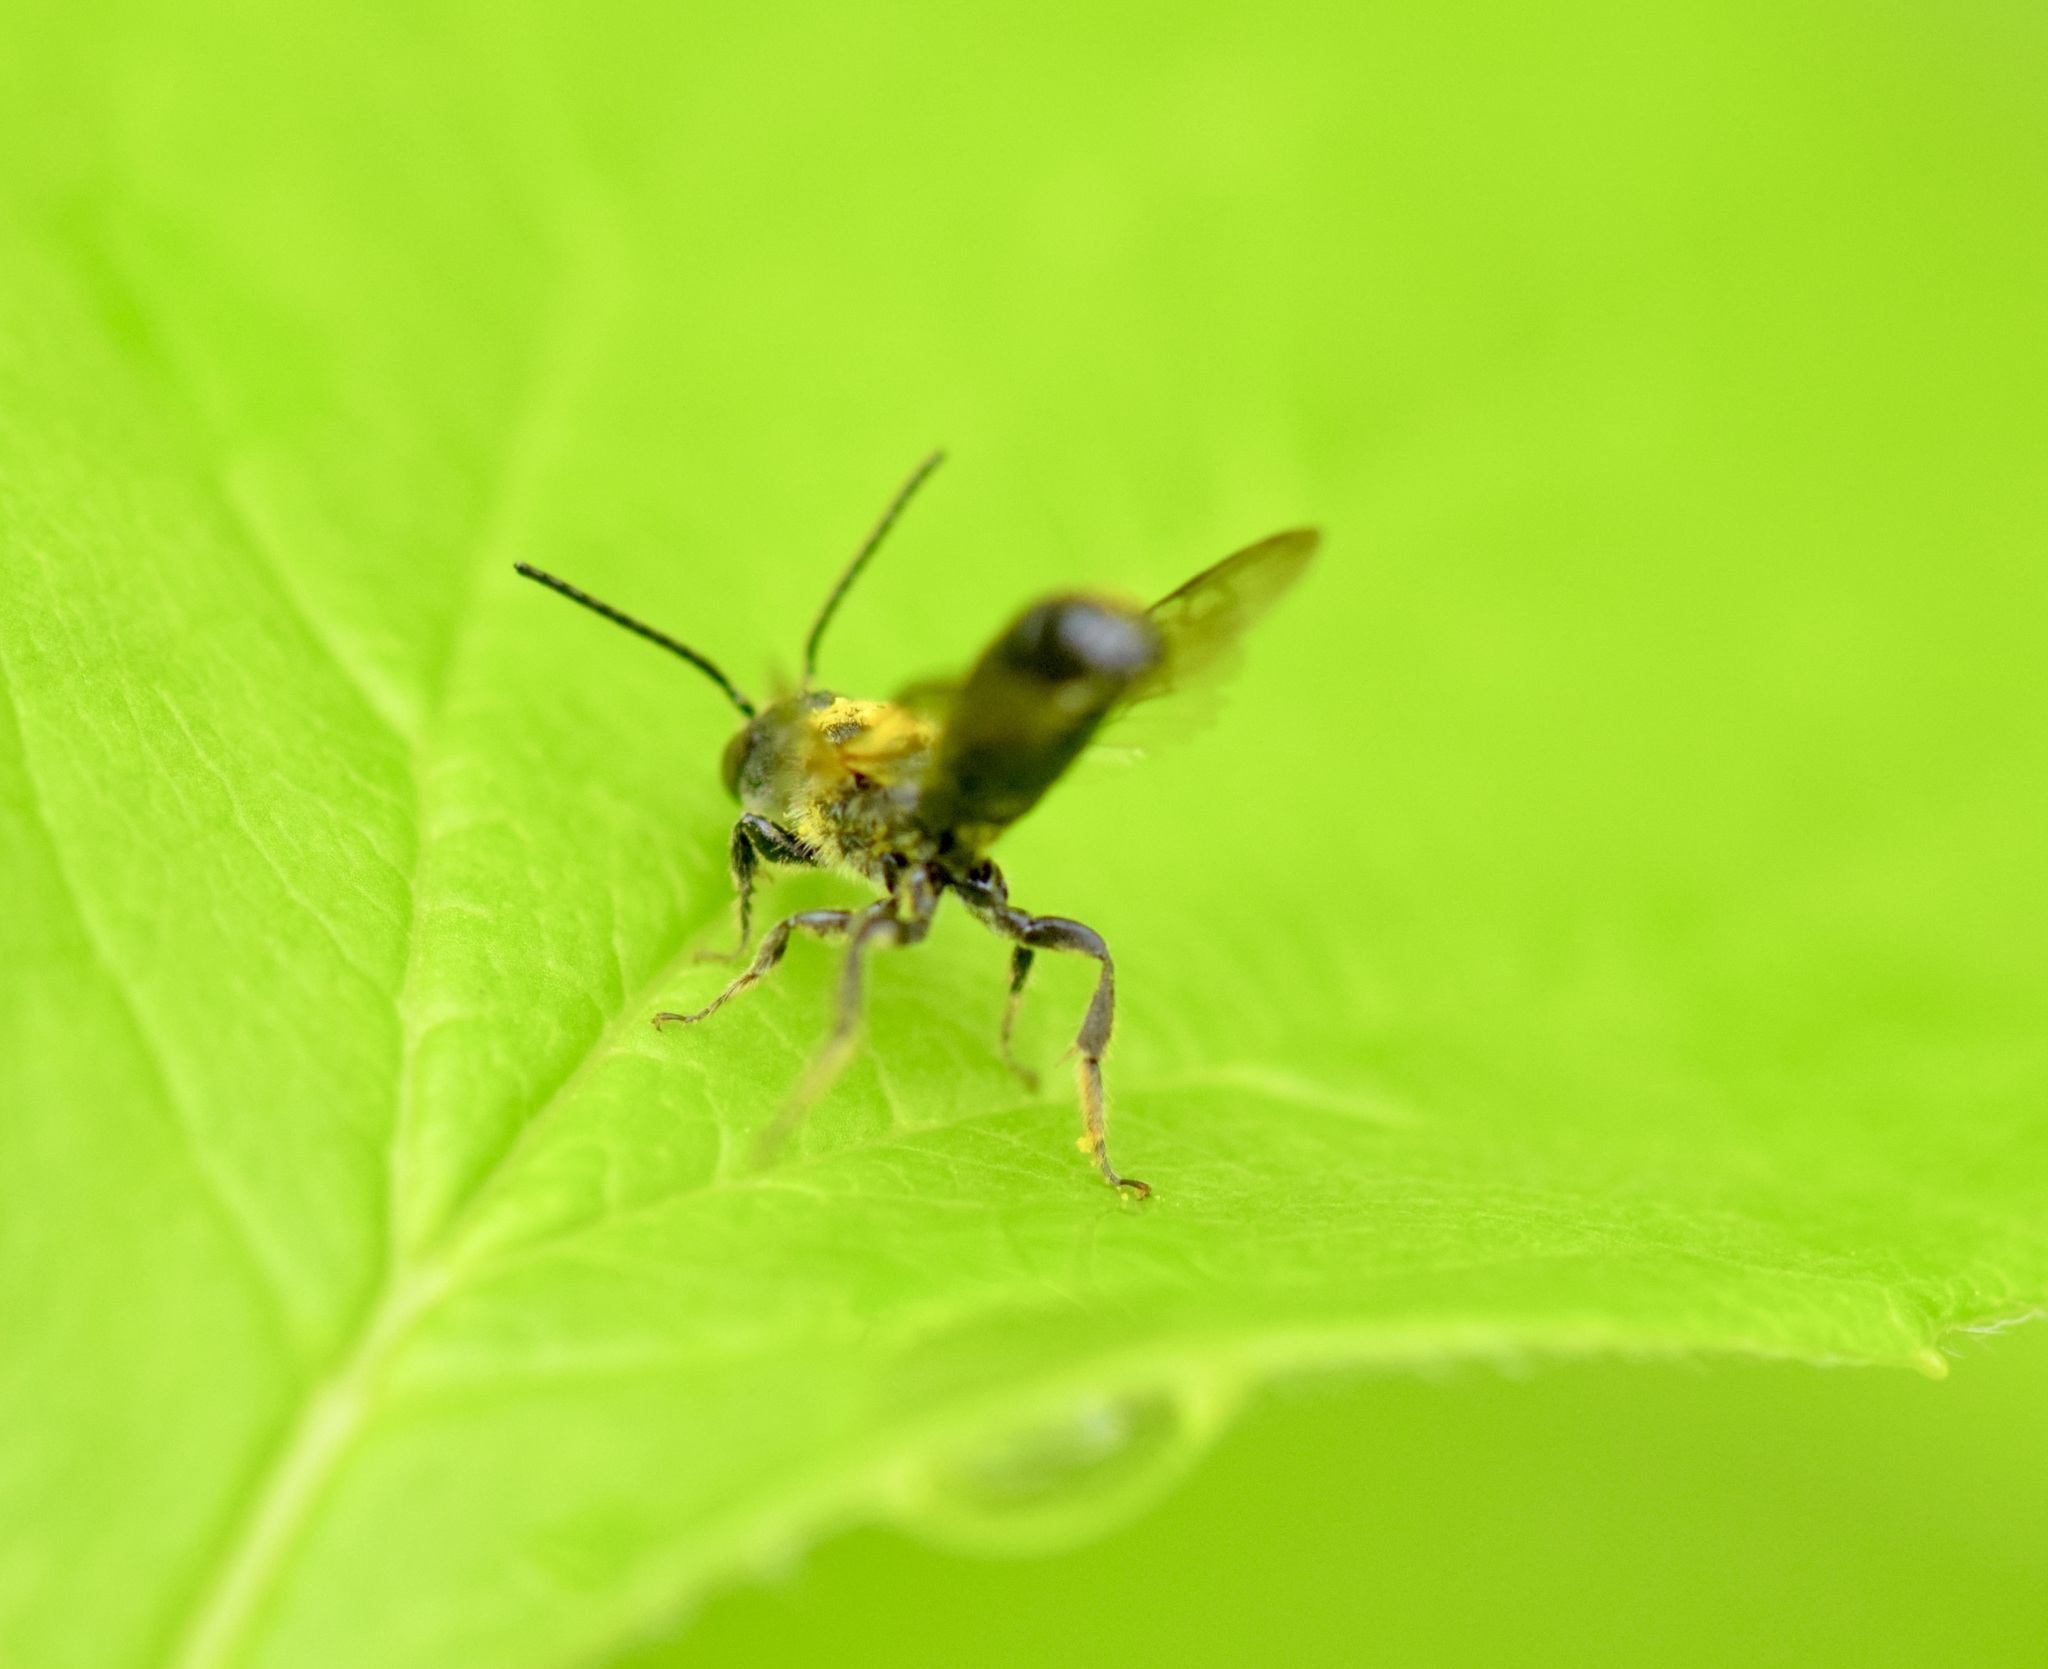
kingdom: Animalia
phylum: Arthropoda
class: Insecta
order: Hymenoptera
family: Megachilidae
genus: Chelostoma
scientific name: Chelostoma philadelphi
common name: Mock-orange scissor bee
